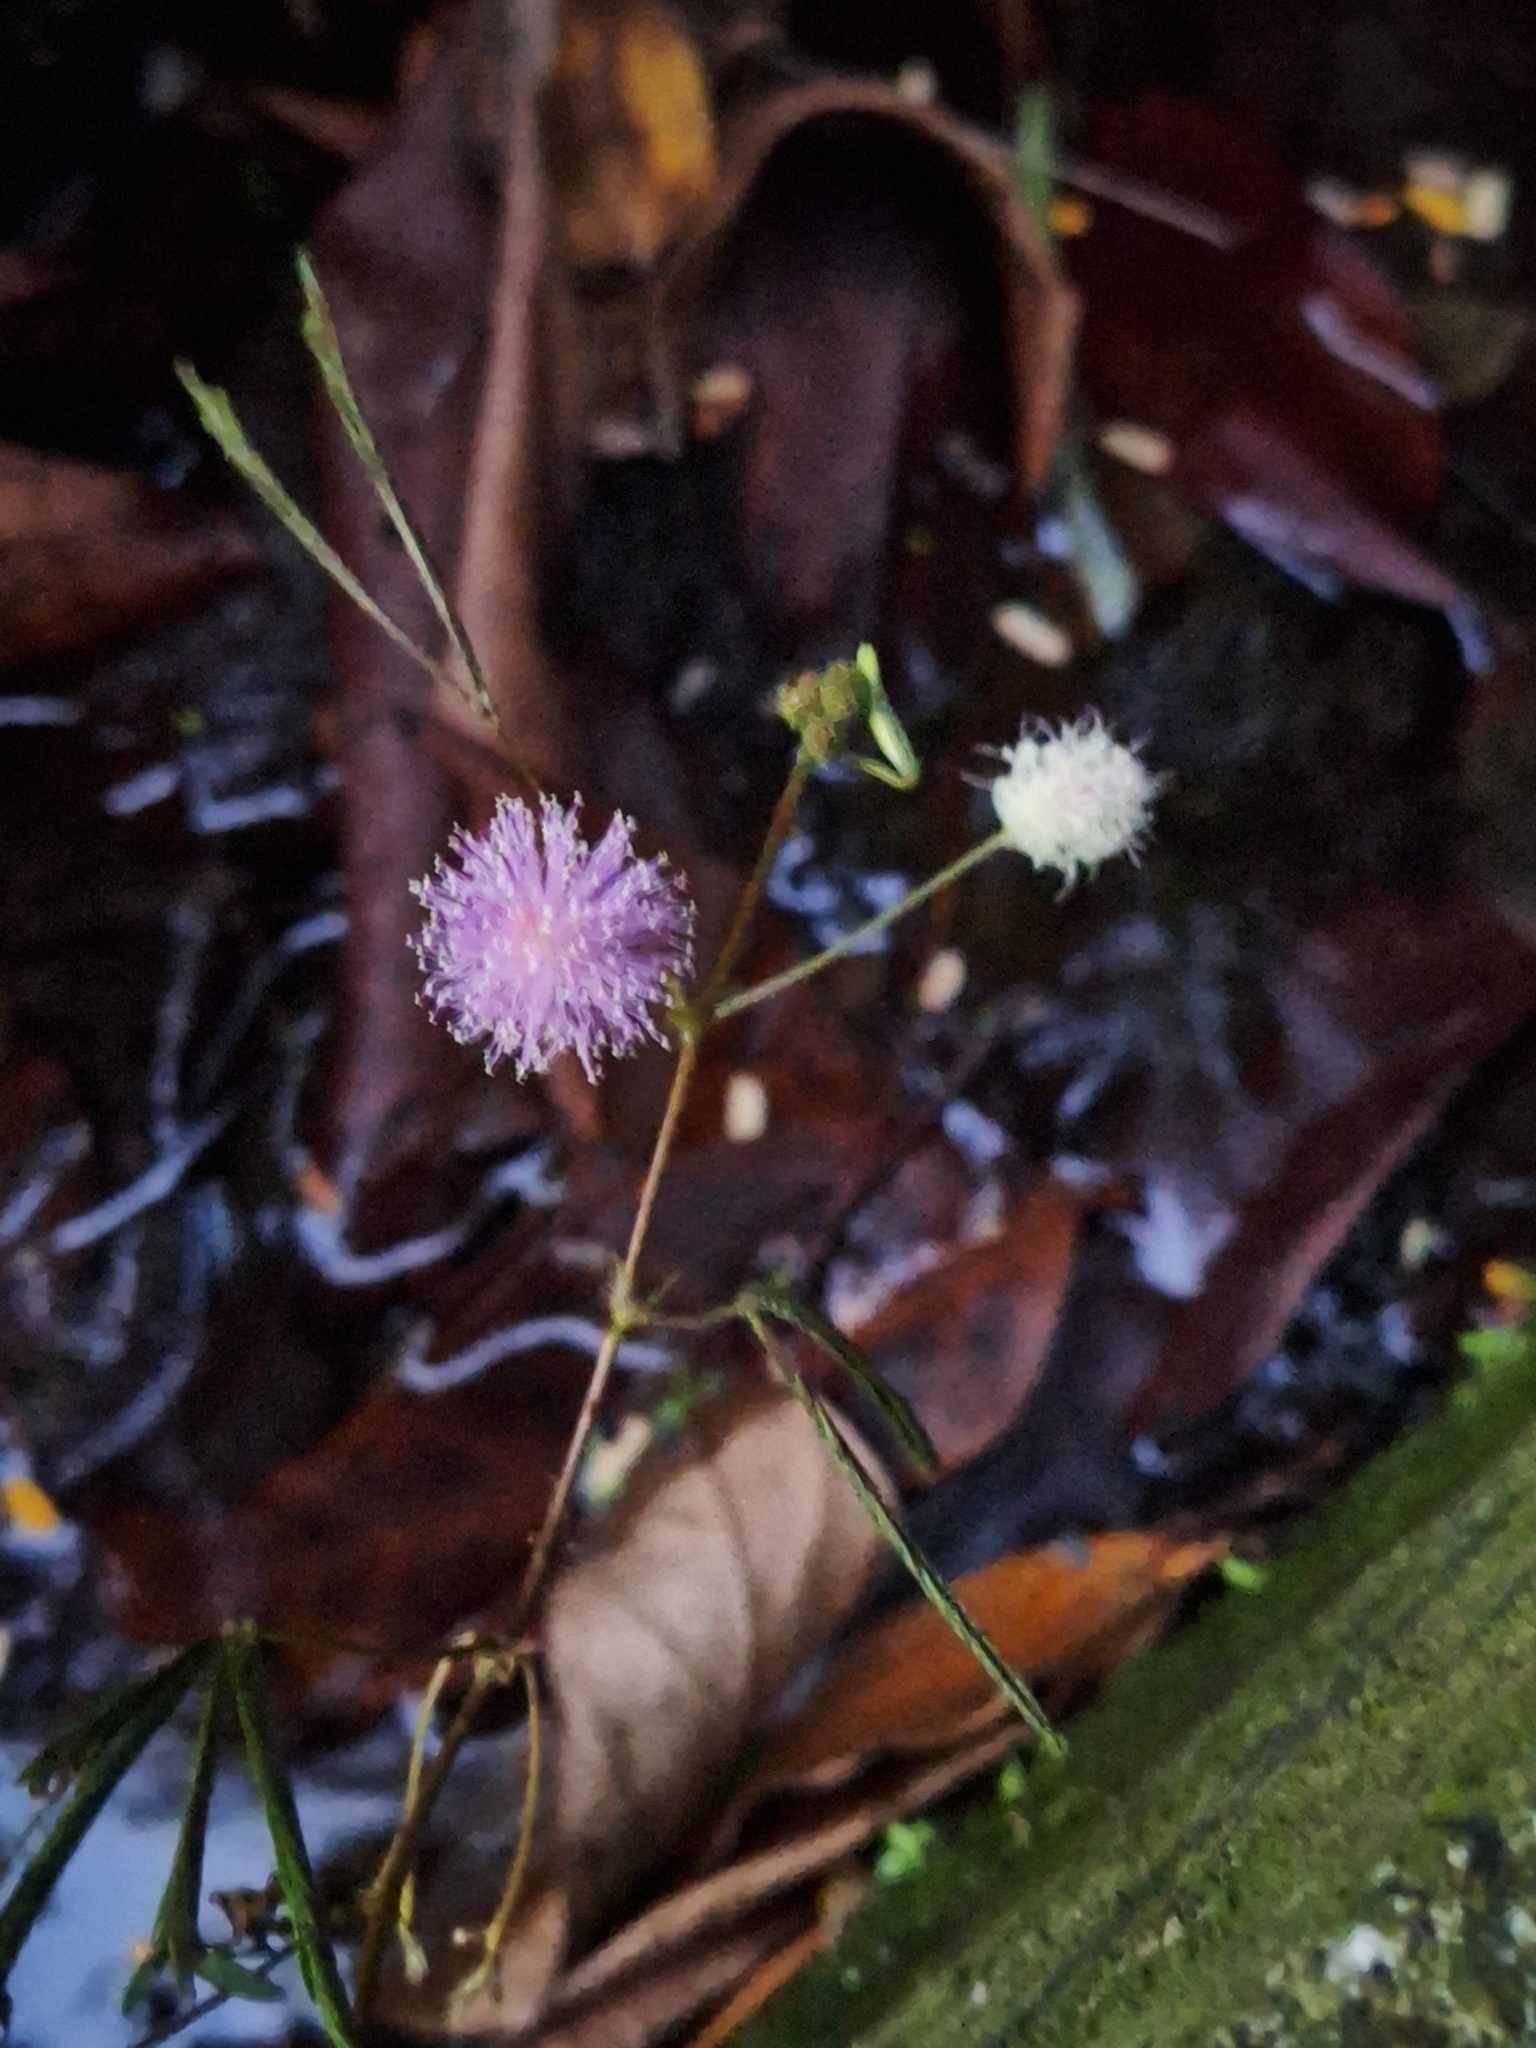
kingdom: Plantae
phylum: Tracheophyta
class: Magnoliopsida
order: Fabales
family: Fabaceae
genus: Mimosa
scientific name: Mimosa pudica
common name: Sensitive plant
